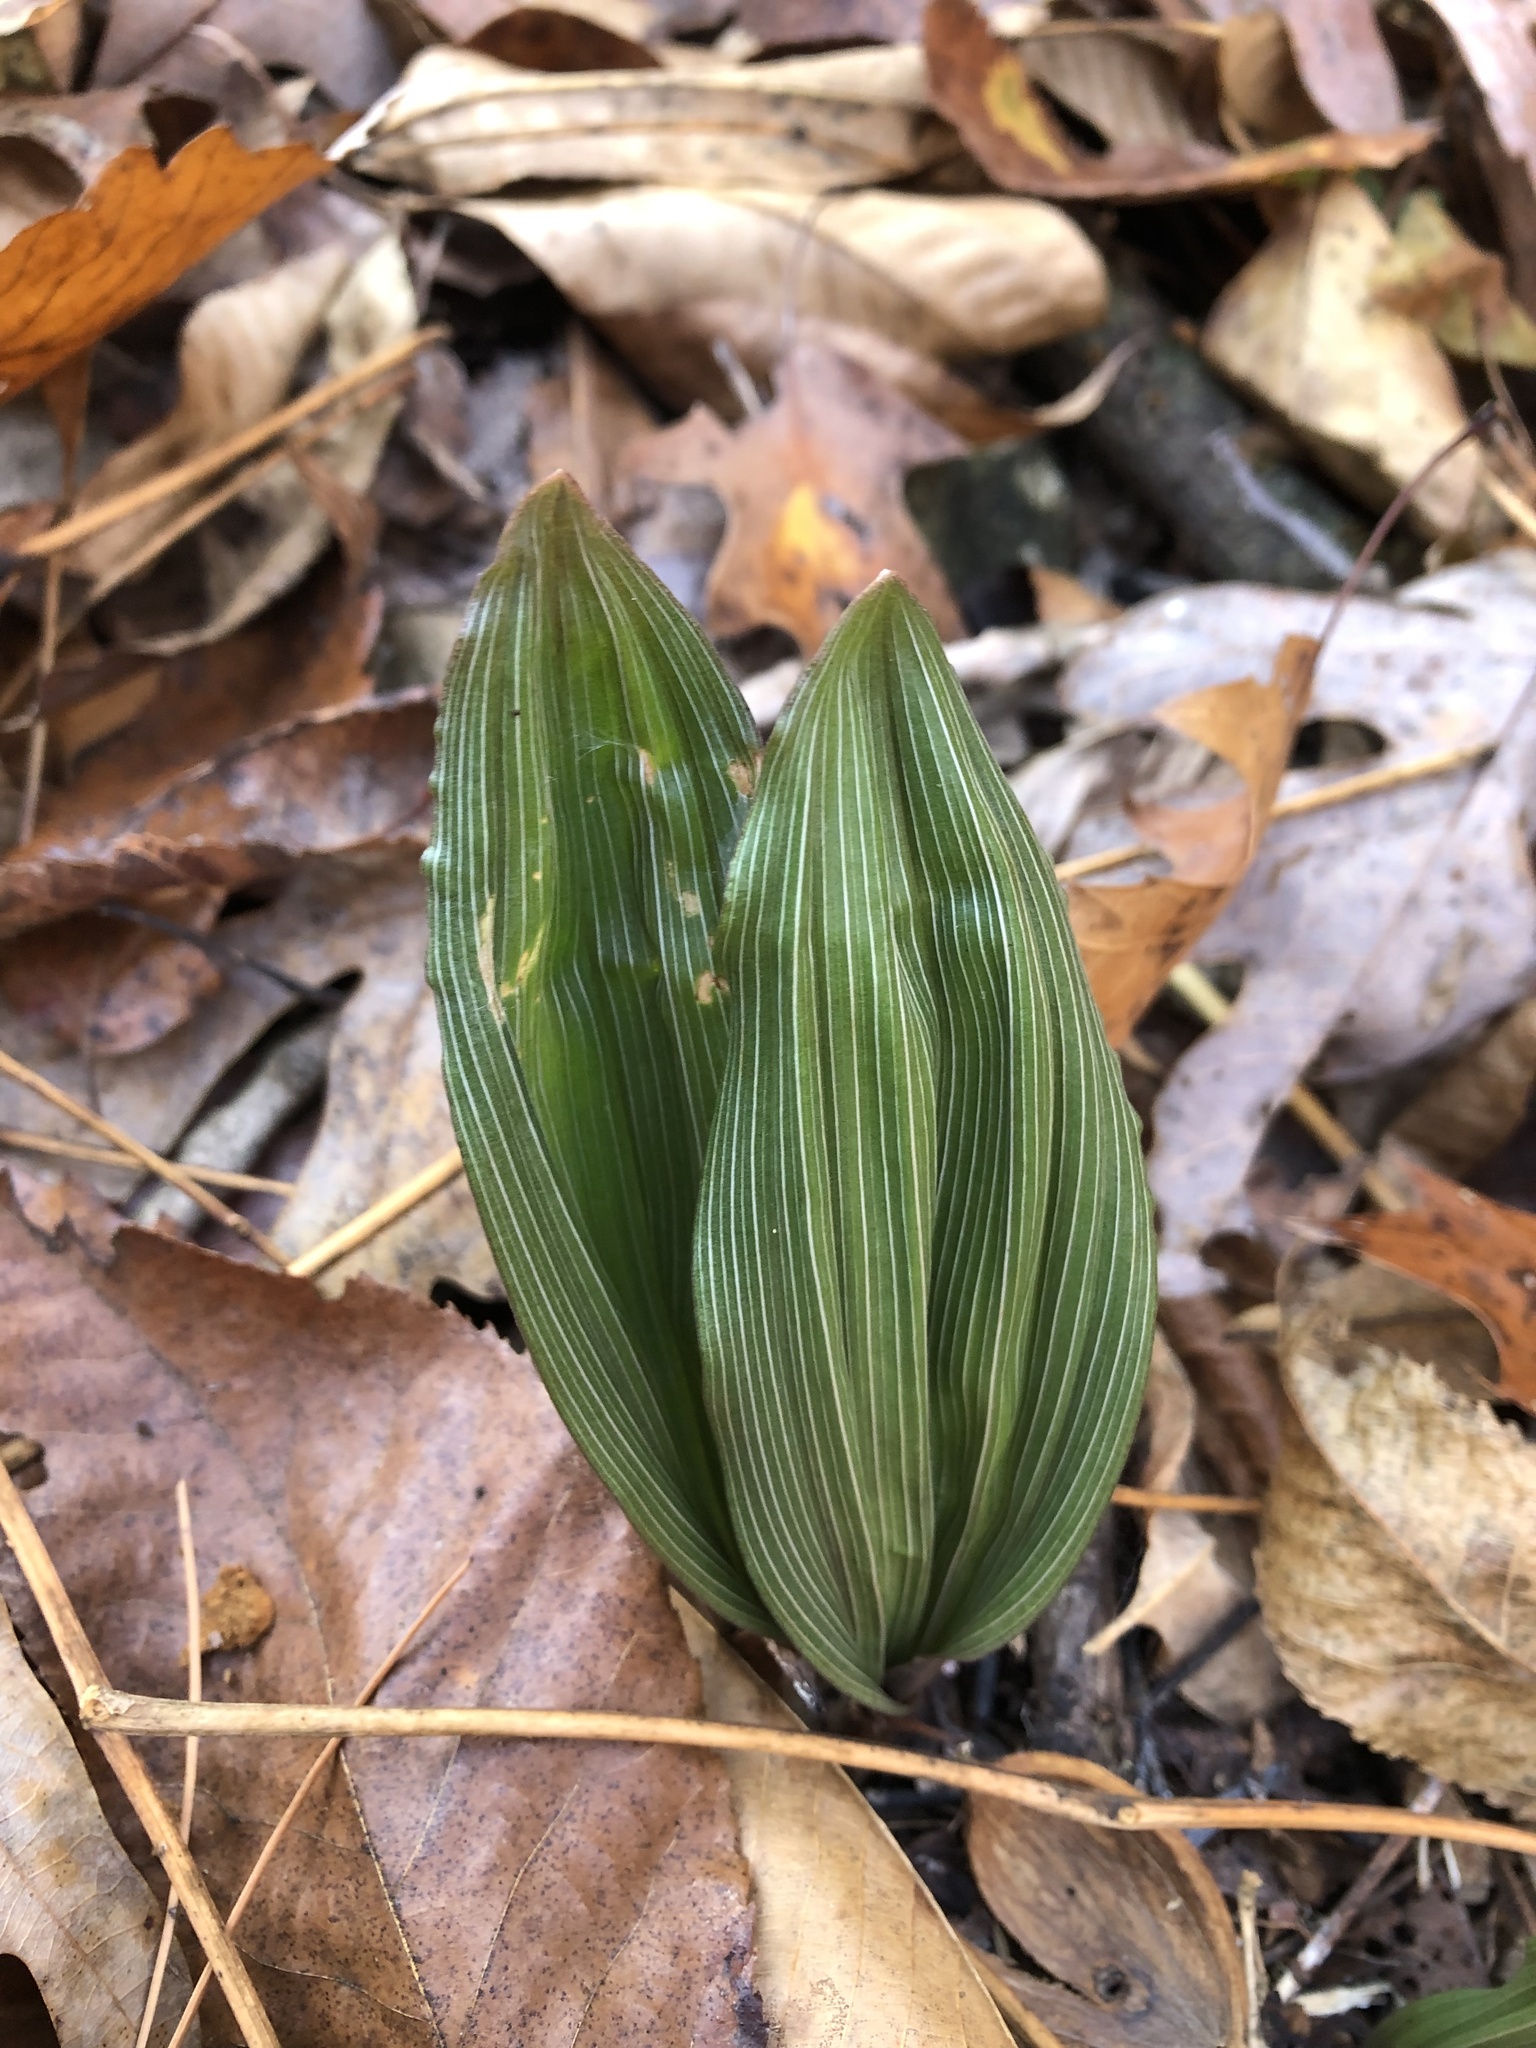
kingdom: Plantae
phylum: Tracheophyta
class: Liliopsida
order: Asparagales
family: Orchidaceae
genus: Aplectrum
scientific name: Aplectrum hyemale
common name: Adam-and-eve
